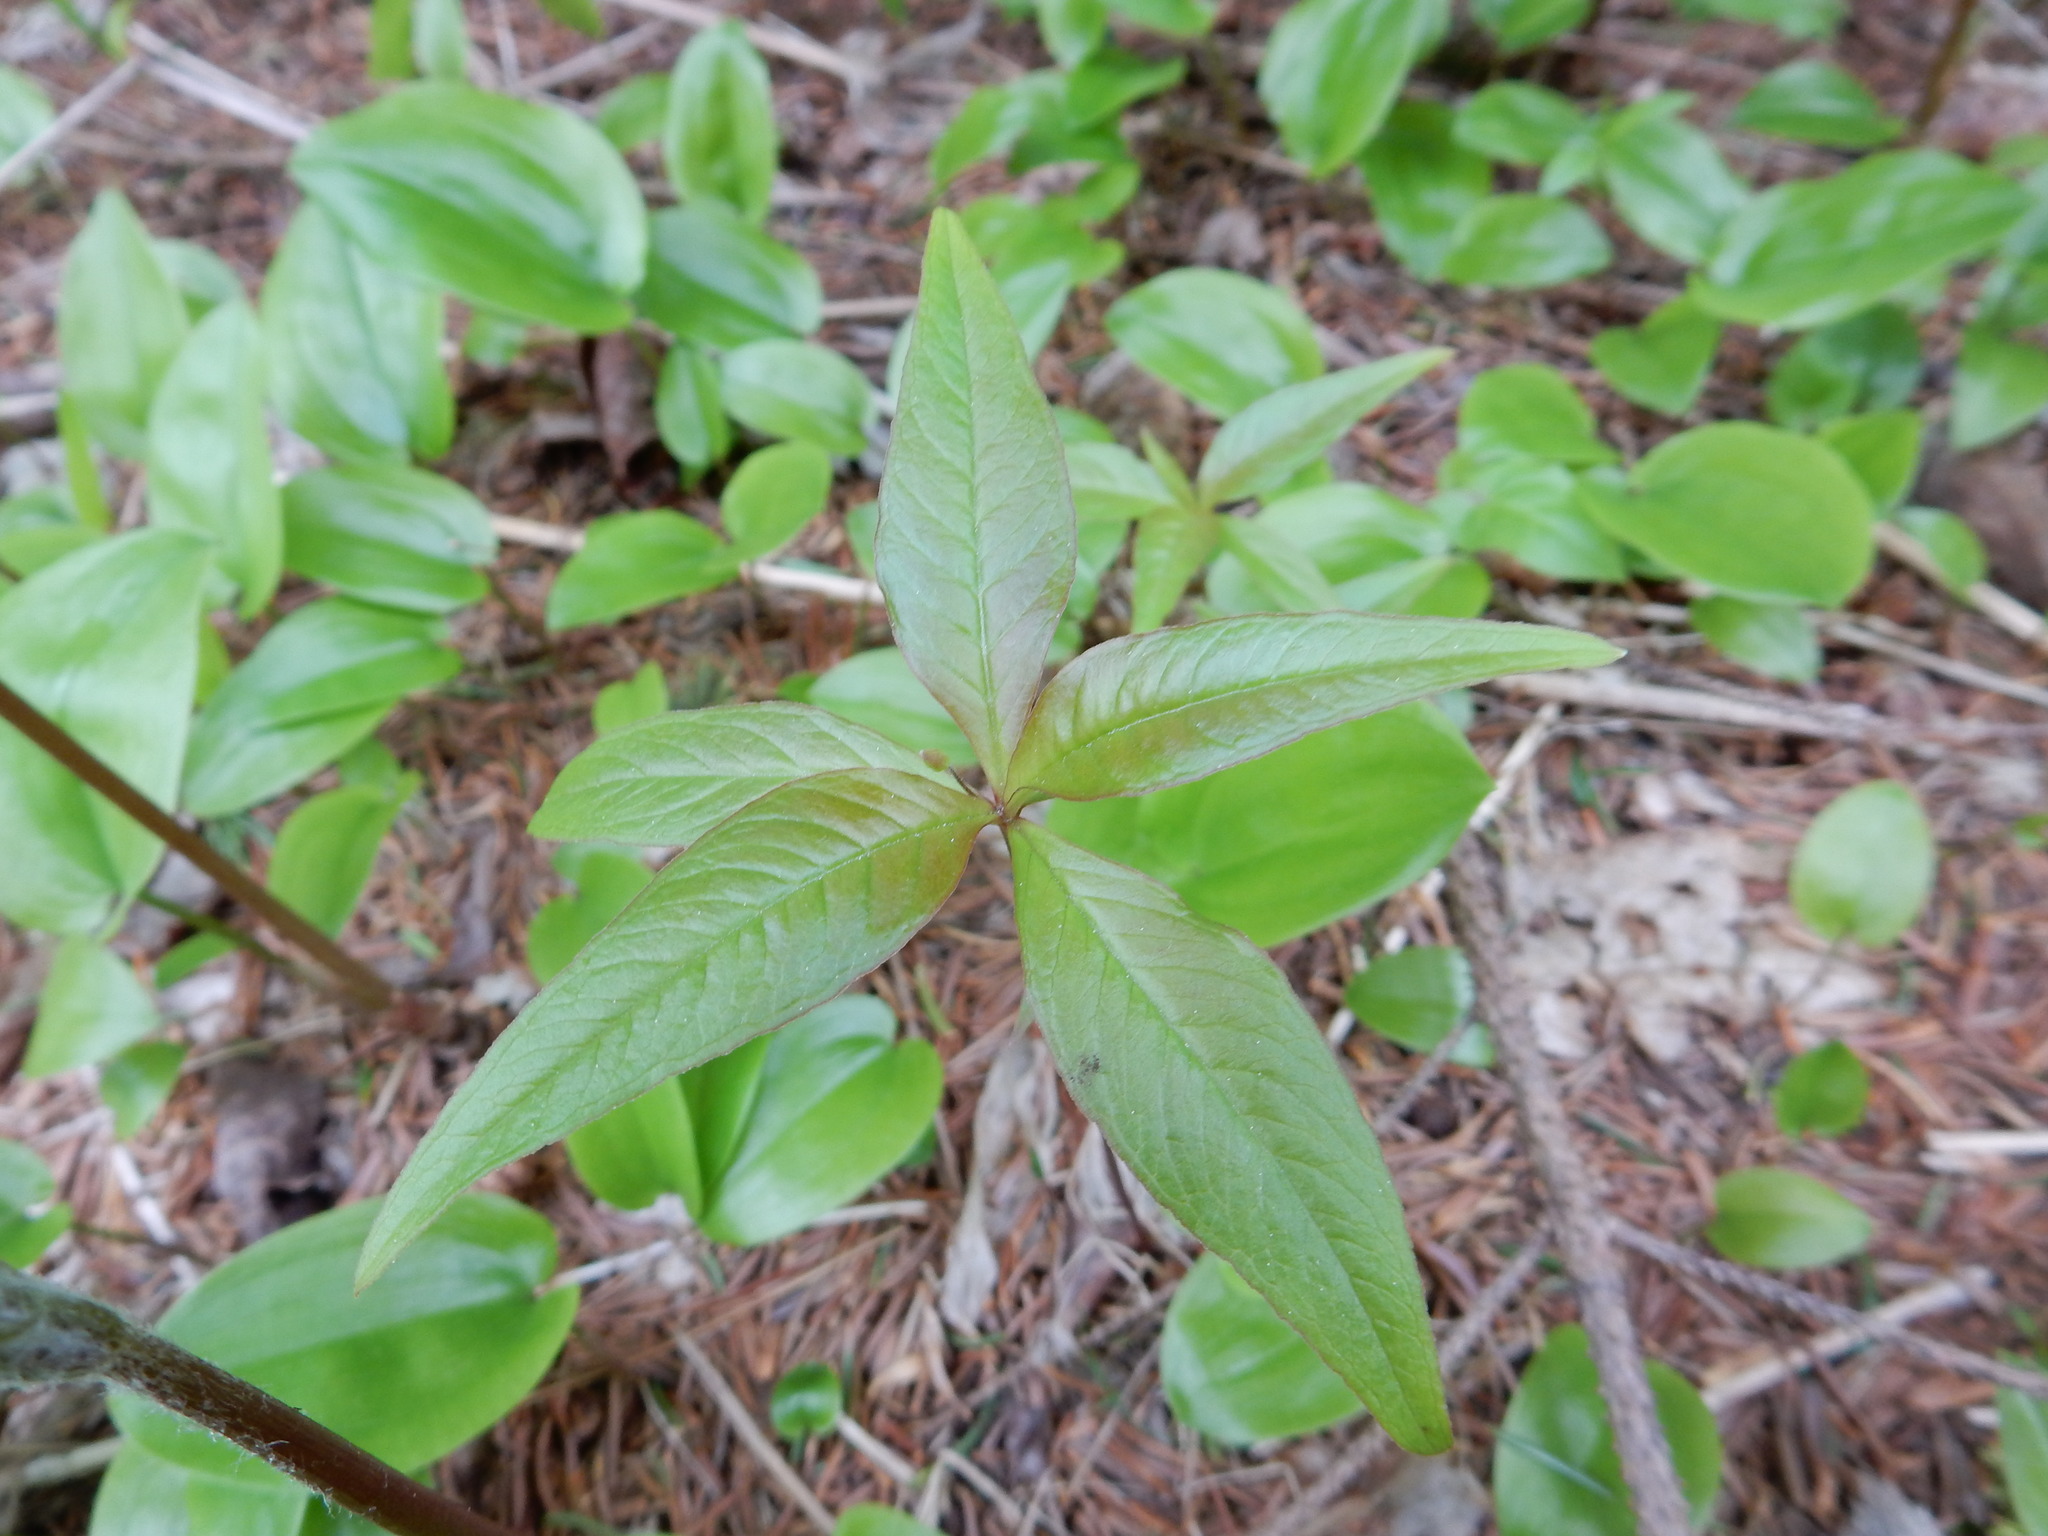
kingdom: Plantae
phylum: Tracheophyta
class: Magnoliopsida
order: Ericales
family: Primulaceae
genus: Lysimachia
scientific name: Lysimachia borealis
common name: American starflower
